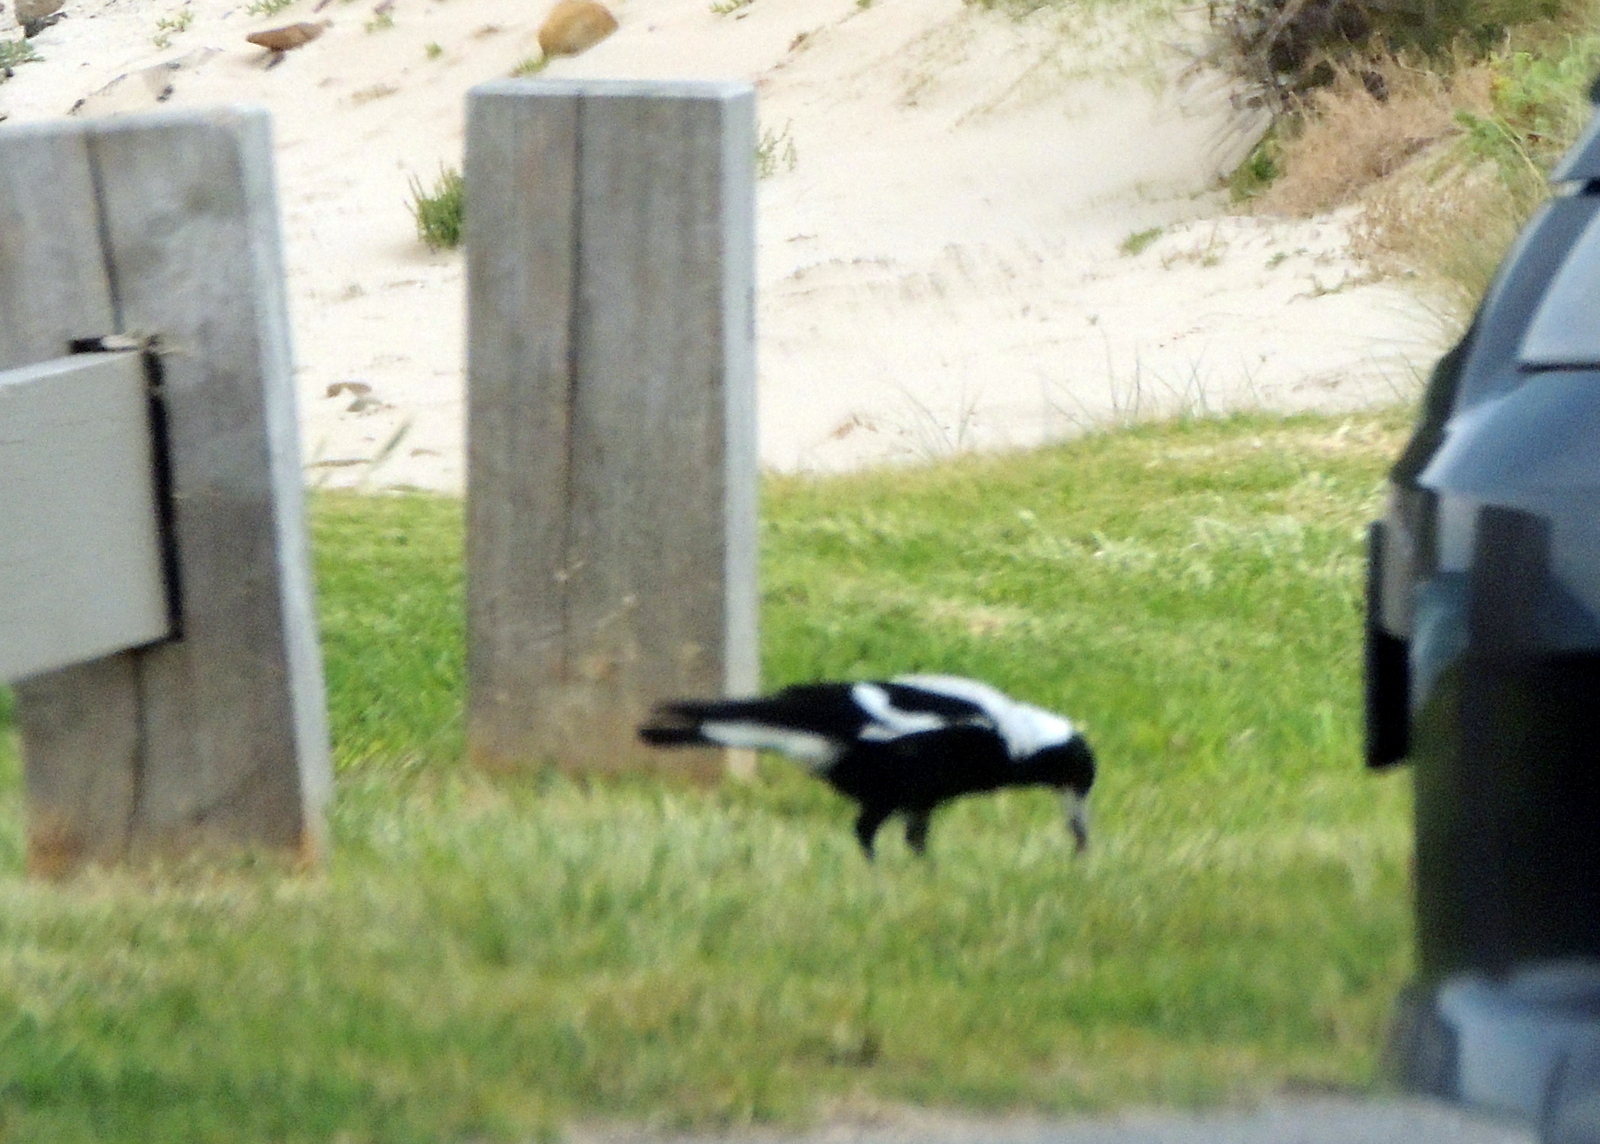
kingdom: Animalia
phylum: Chordata
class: Aves
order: Passeriformes
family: Cracticidae
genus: Gymnorhina
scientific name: Gymnorhina tibicen
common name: Australian magpie
